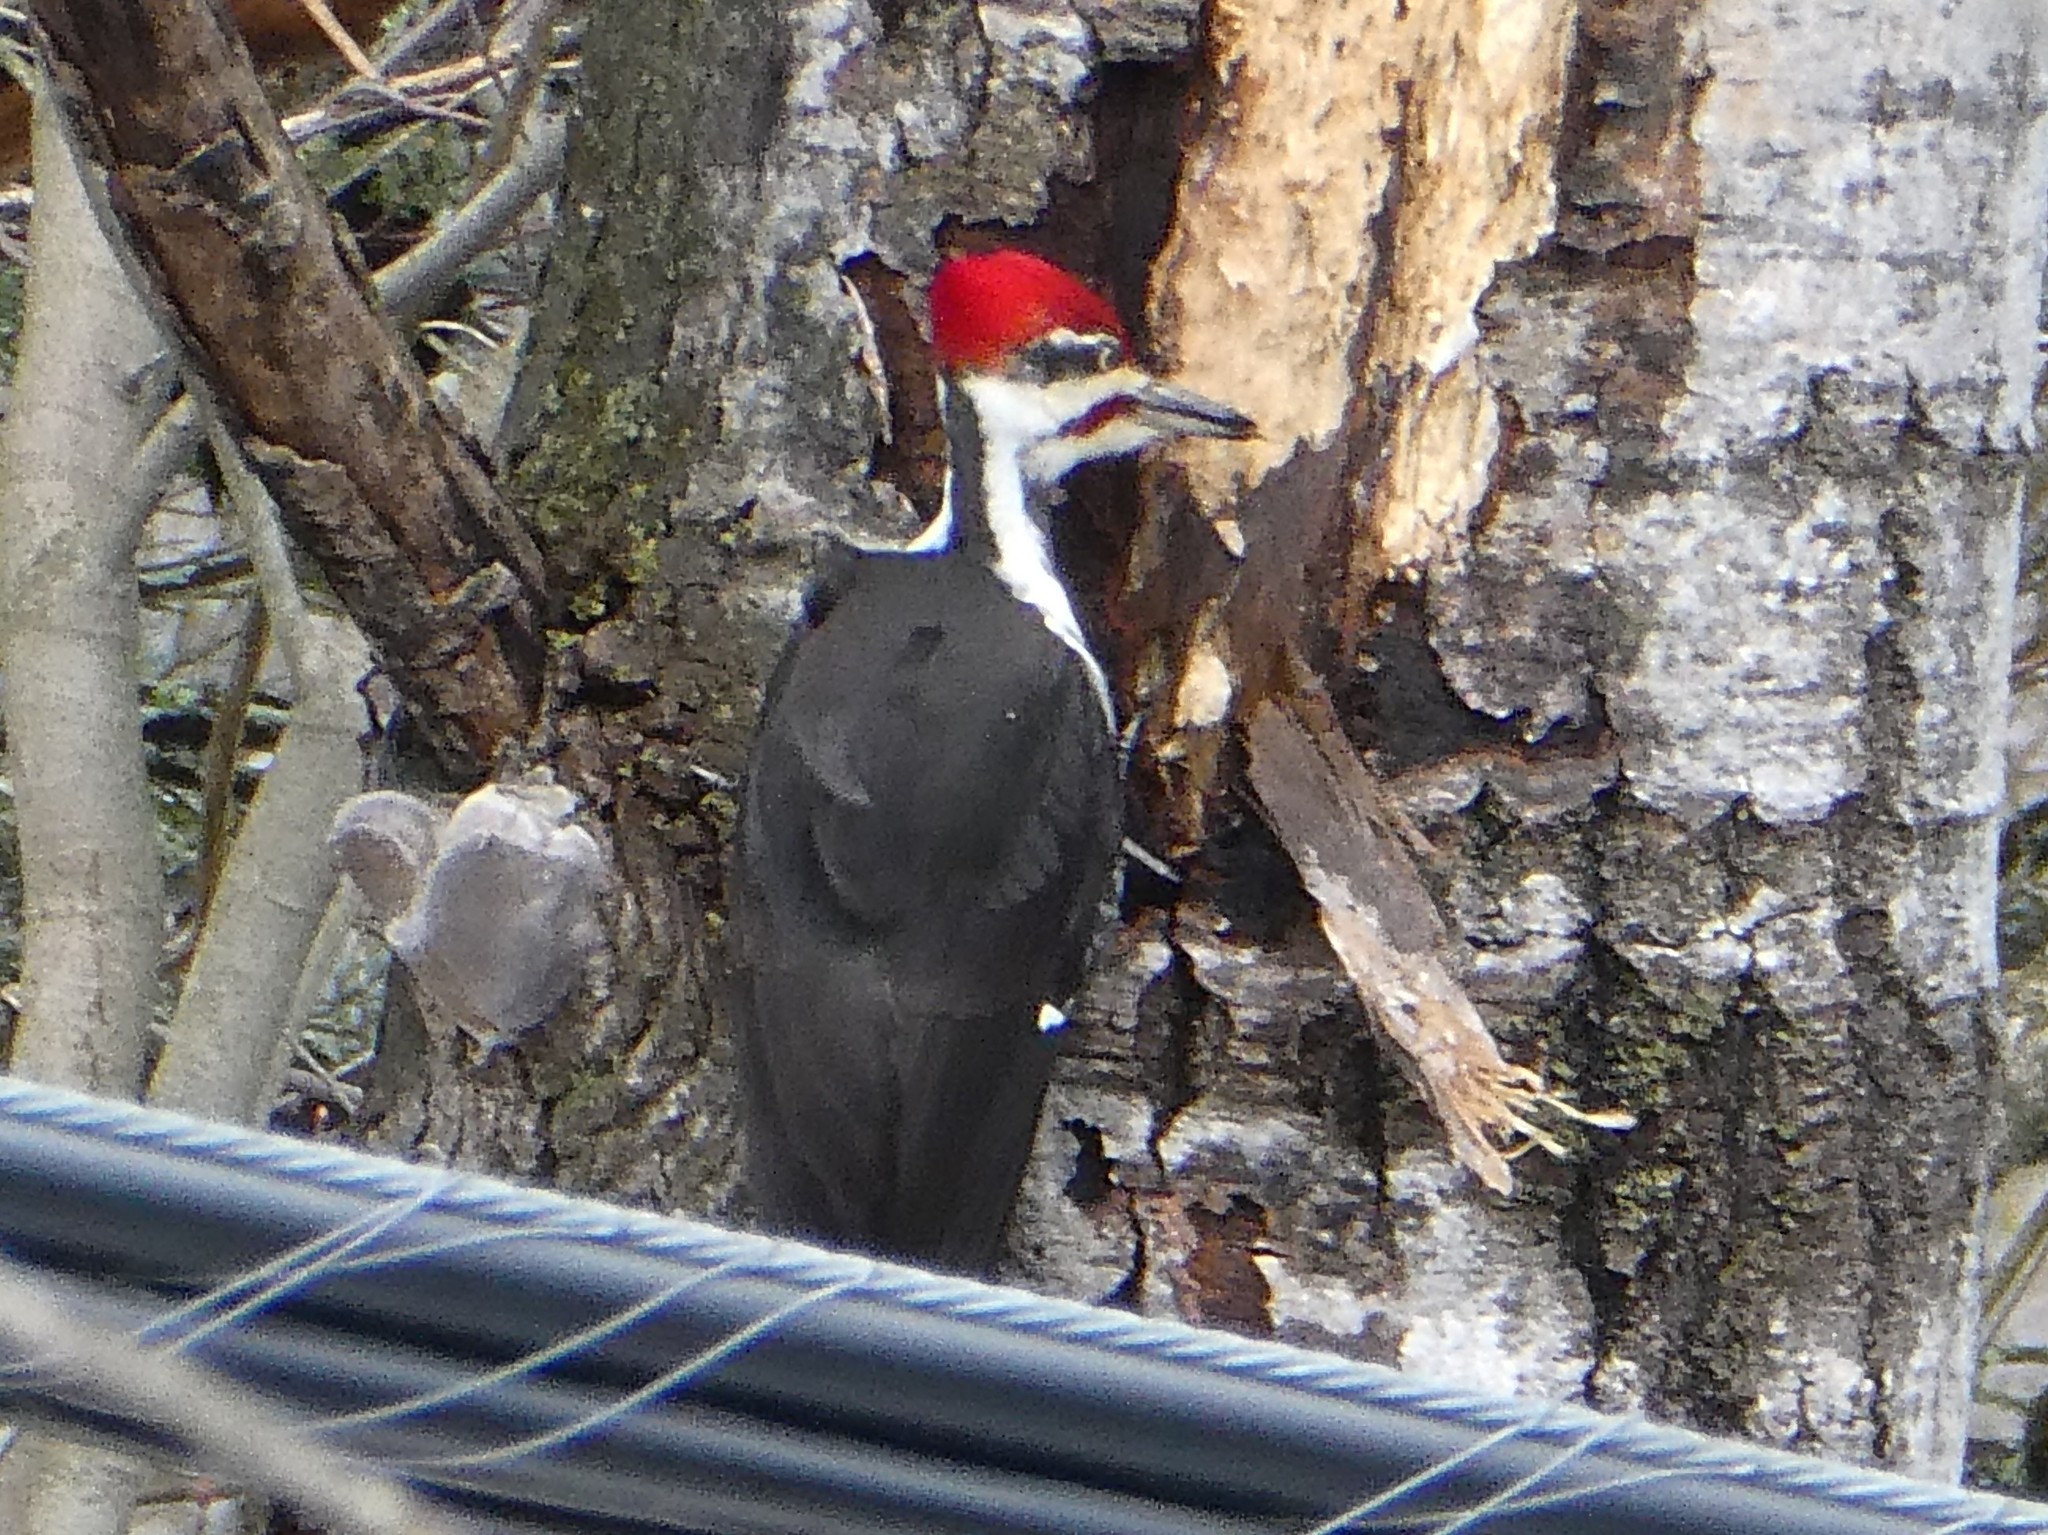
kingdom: Animalia
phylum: Chordata
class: Aves
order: Piciformes
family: Picidae
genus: Dryocopus
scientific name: Dryocopus pileatus
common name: Pileated woodpecker
